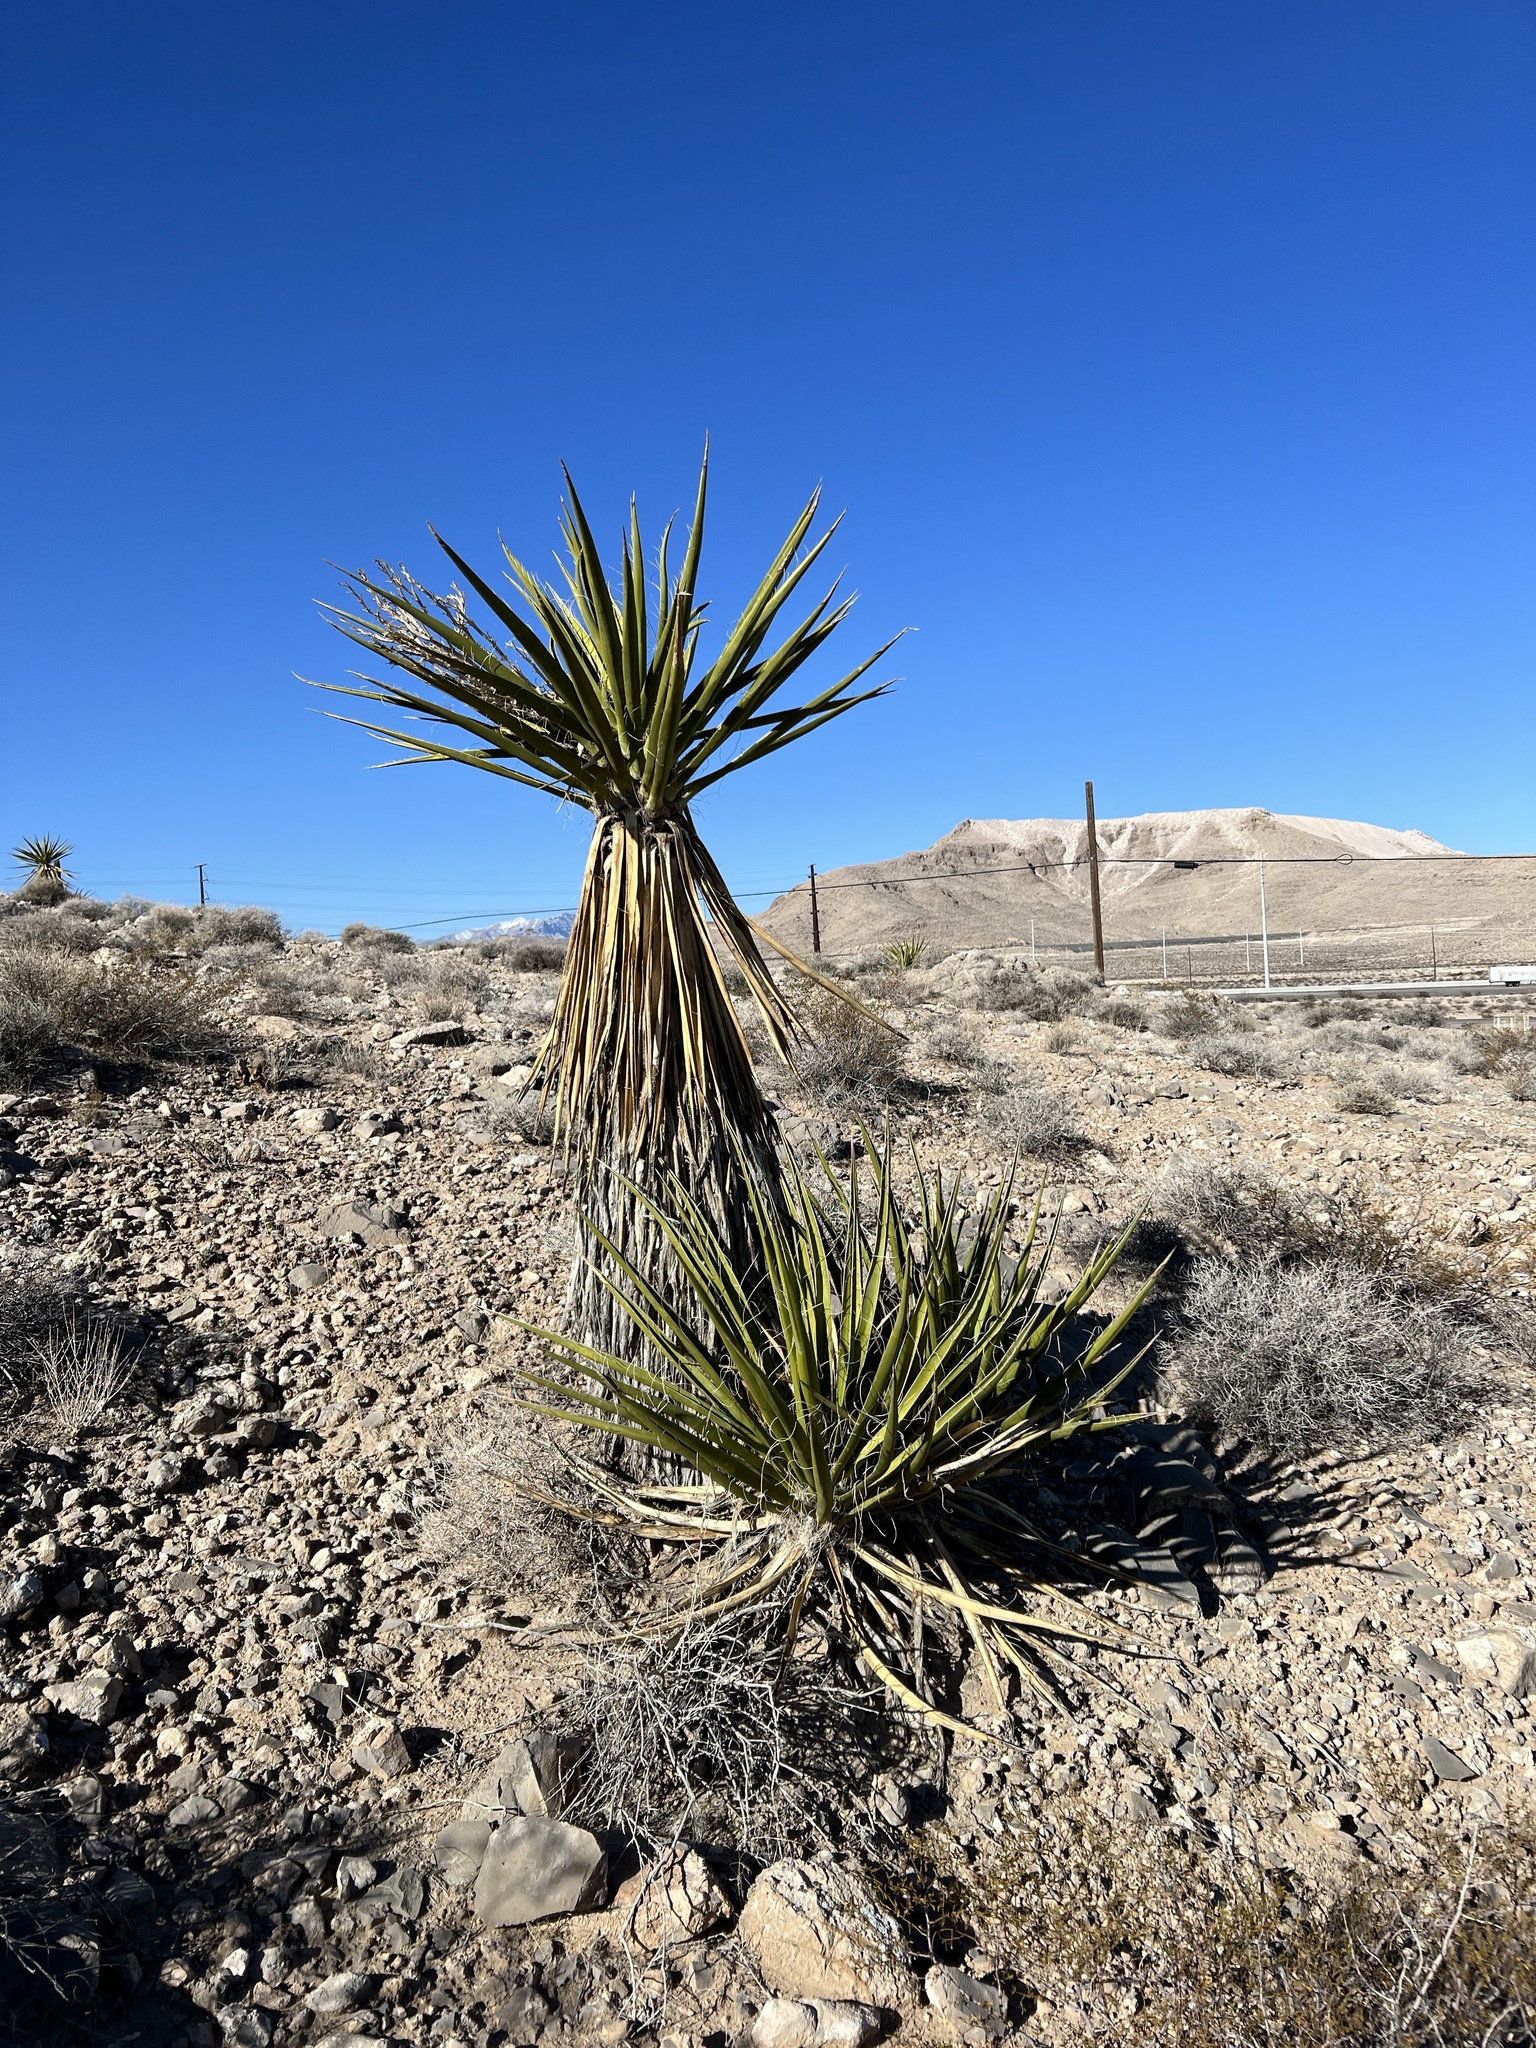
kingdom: Plantae
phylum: Tracheophyta
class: Liliopsida
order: Asparagales
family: Asparagaceae
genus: Yucca
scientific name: Yucca schidigera
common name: Mojave yucca
